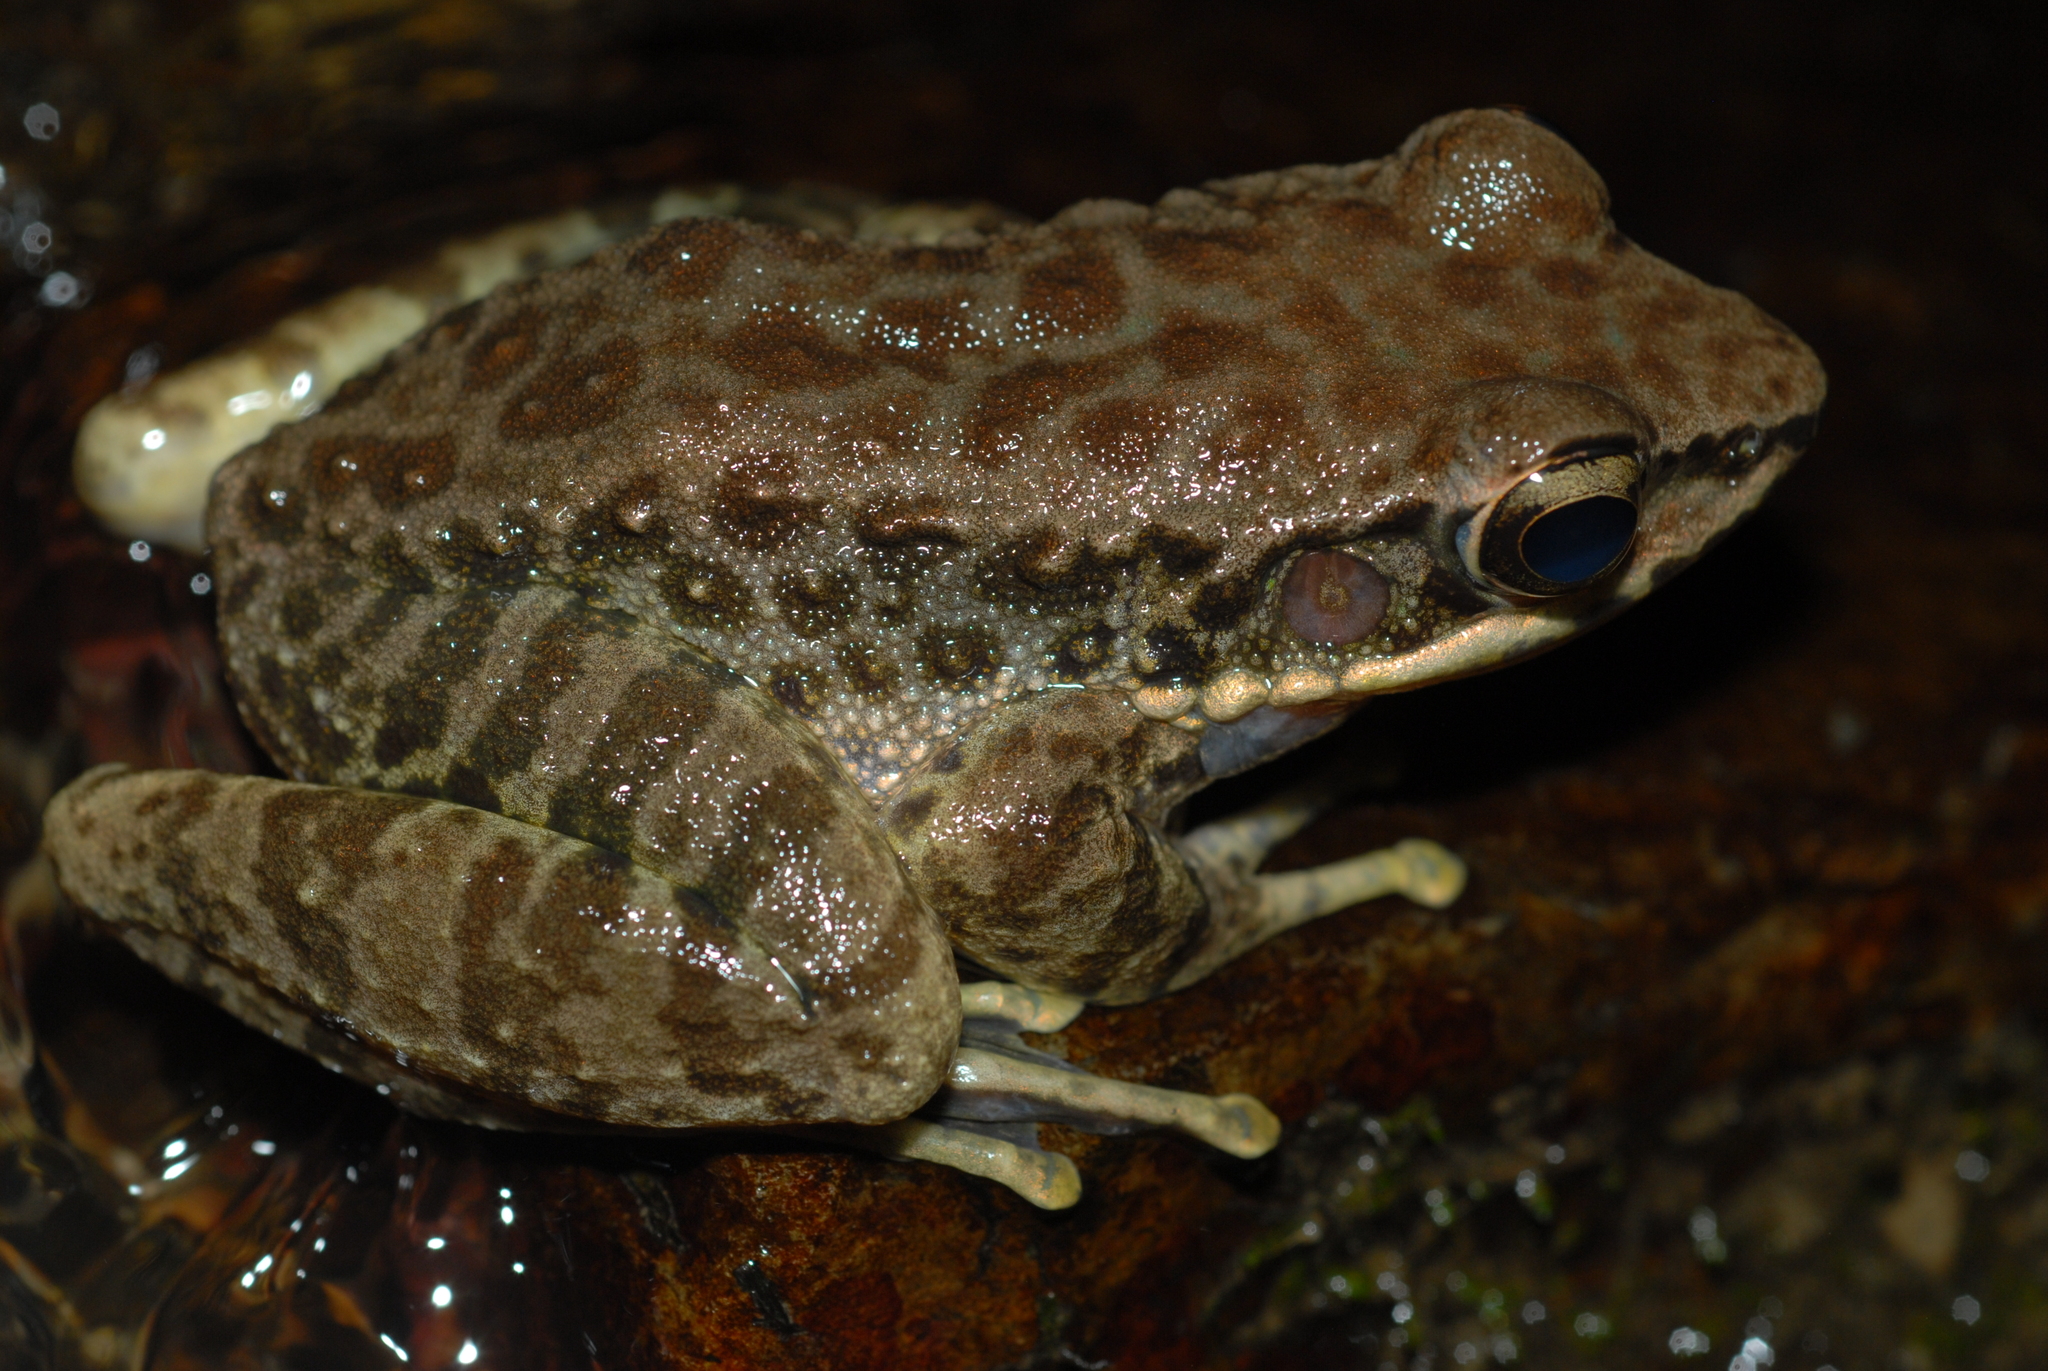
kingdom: Animalia
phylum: Chordata
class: Amphibia
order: Anura
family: Ranidae
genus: Odorrana
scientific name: Odorrana swinhoana
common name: Bangkimtsing frog
